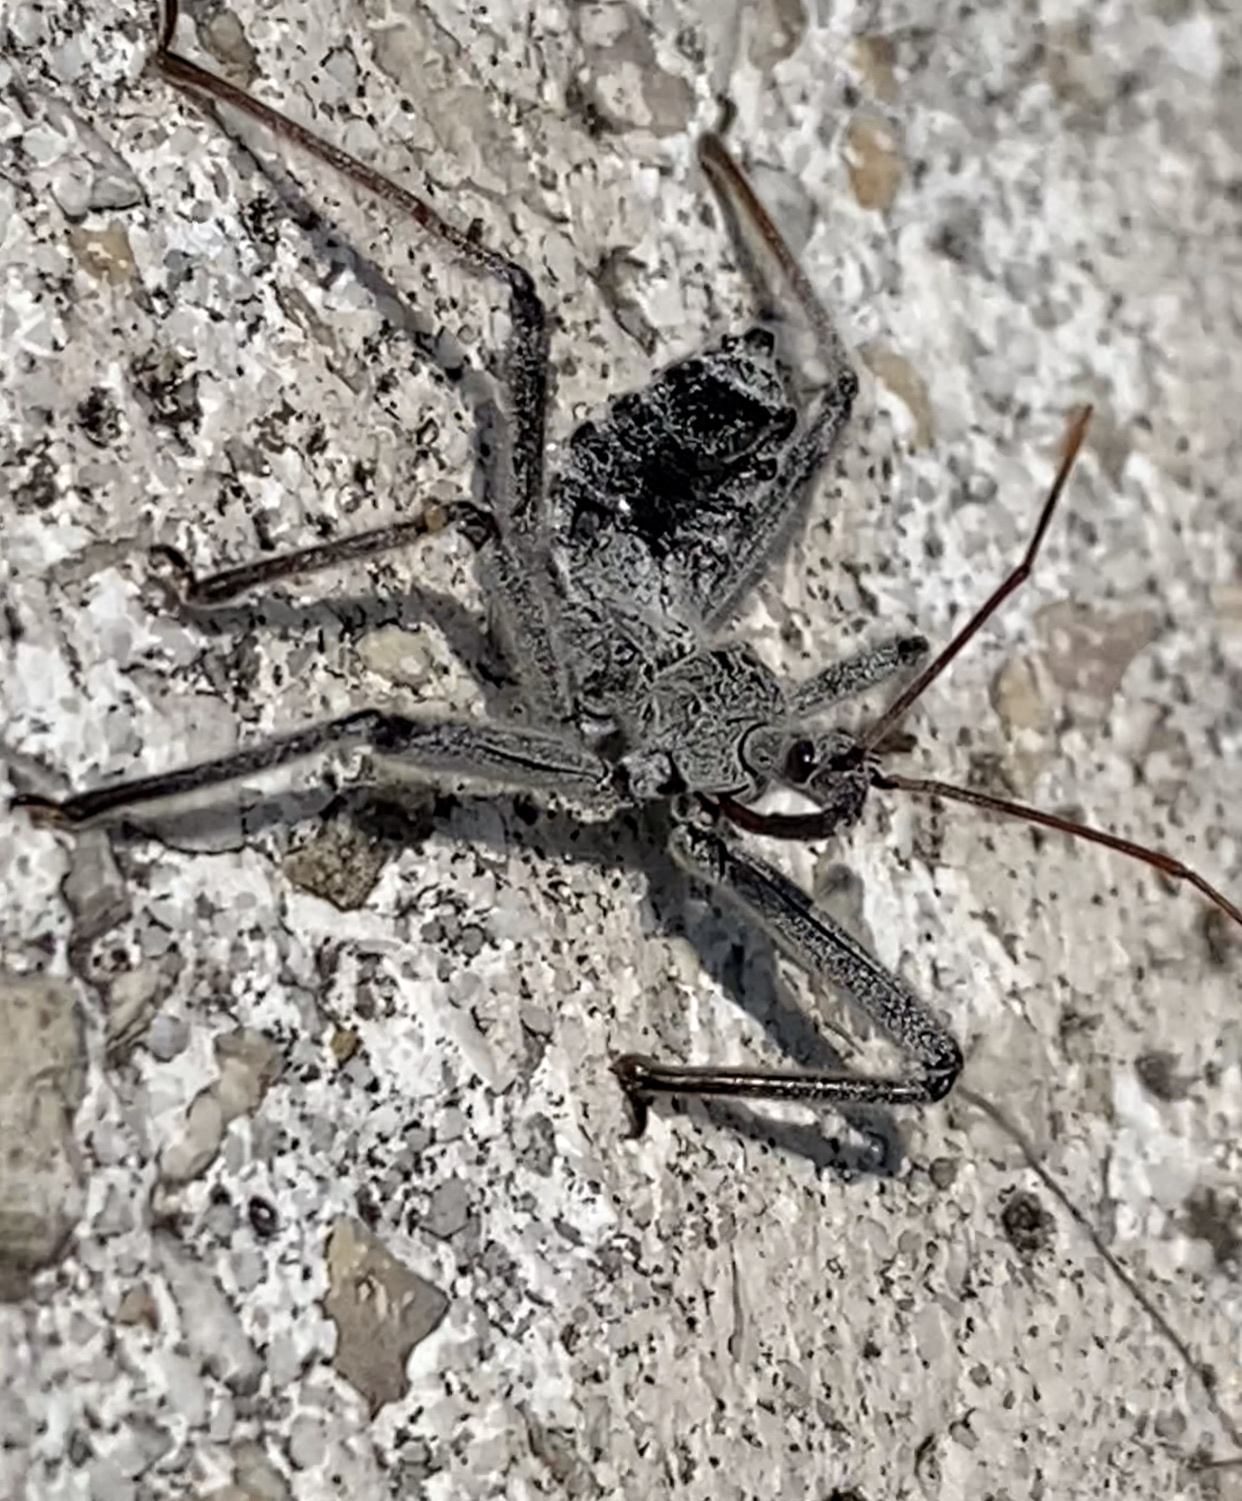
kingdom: Animalia
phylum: Arthropoda
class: Insecta
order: Hemiptera
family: Reduviidae
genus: Arilus
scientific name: Arilus cristatus
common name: North american wheel bug
